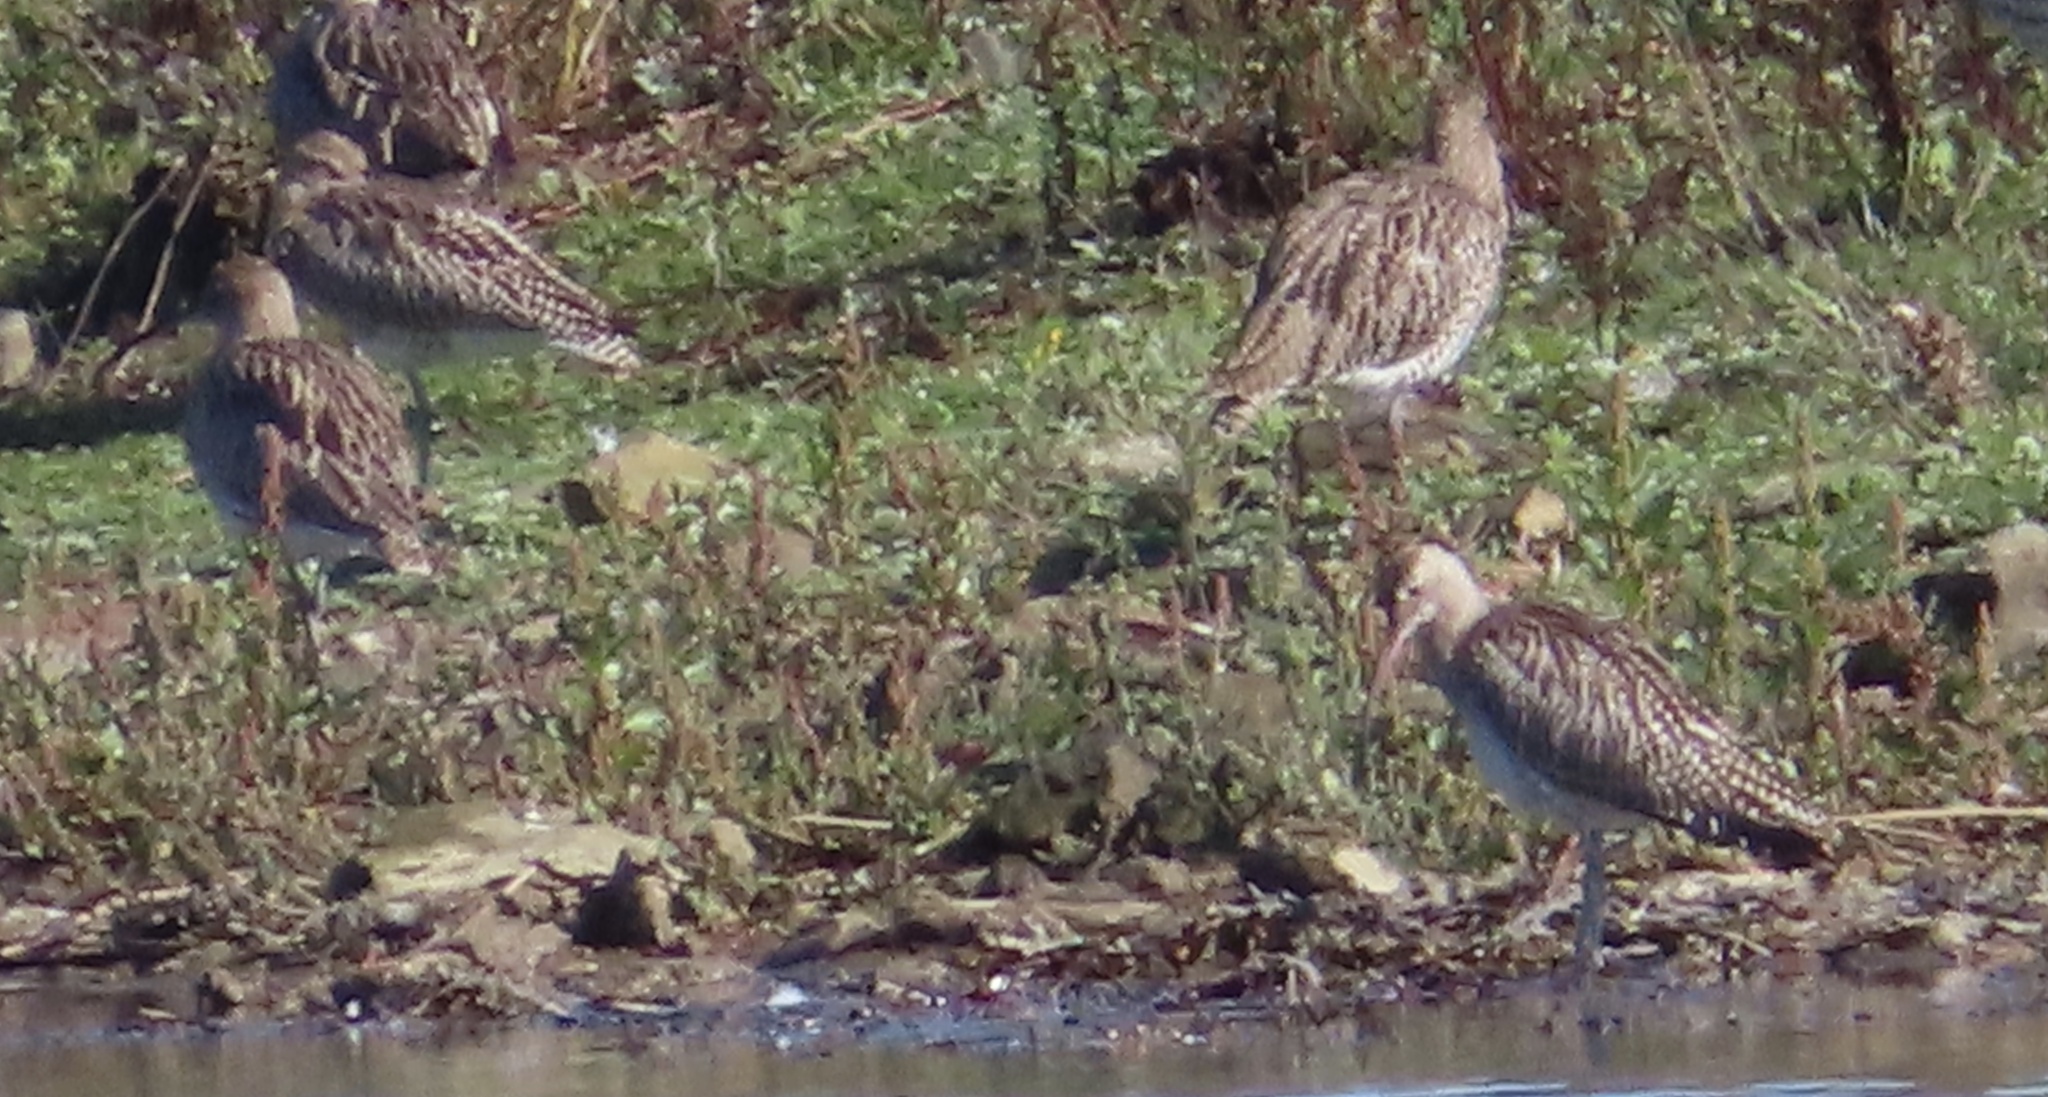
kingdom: Animalia
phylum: Chordata
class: Aves
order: Charadriiformes
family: Scolopacidae
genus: Numenius
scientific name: Numenius arquata
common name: Eurasian curlew
